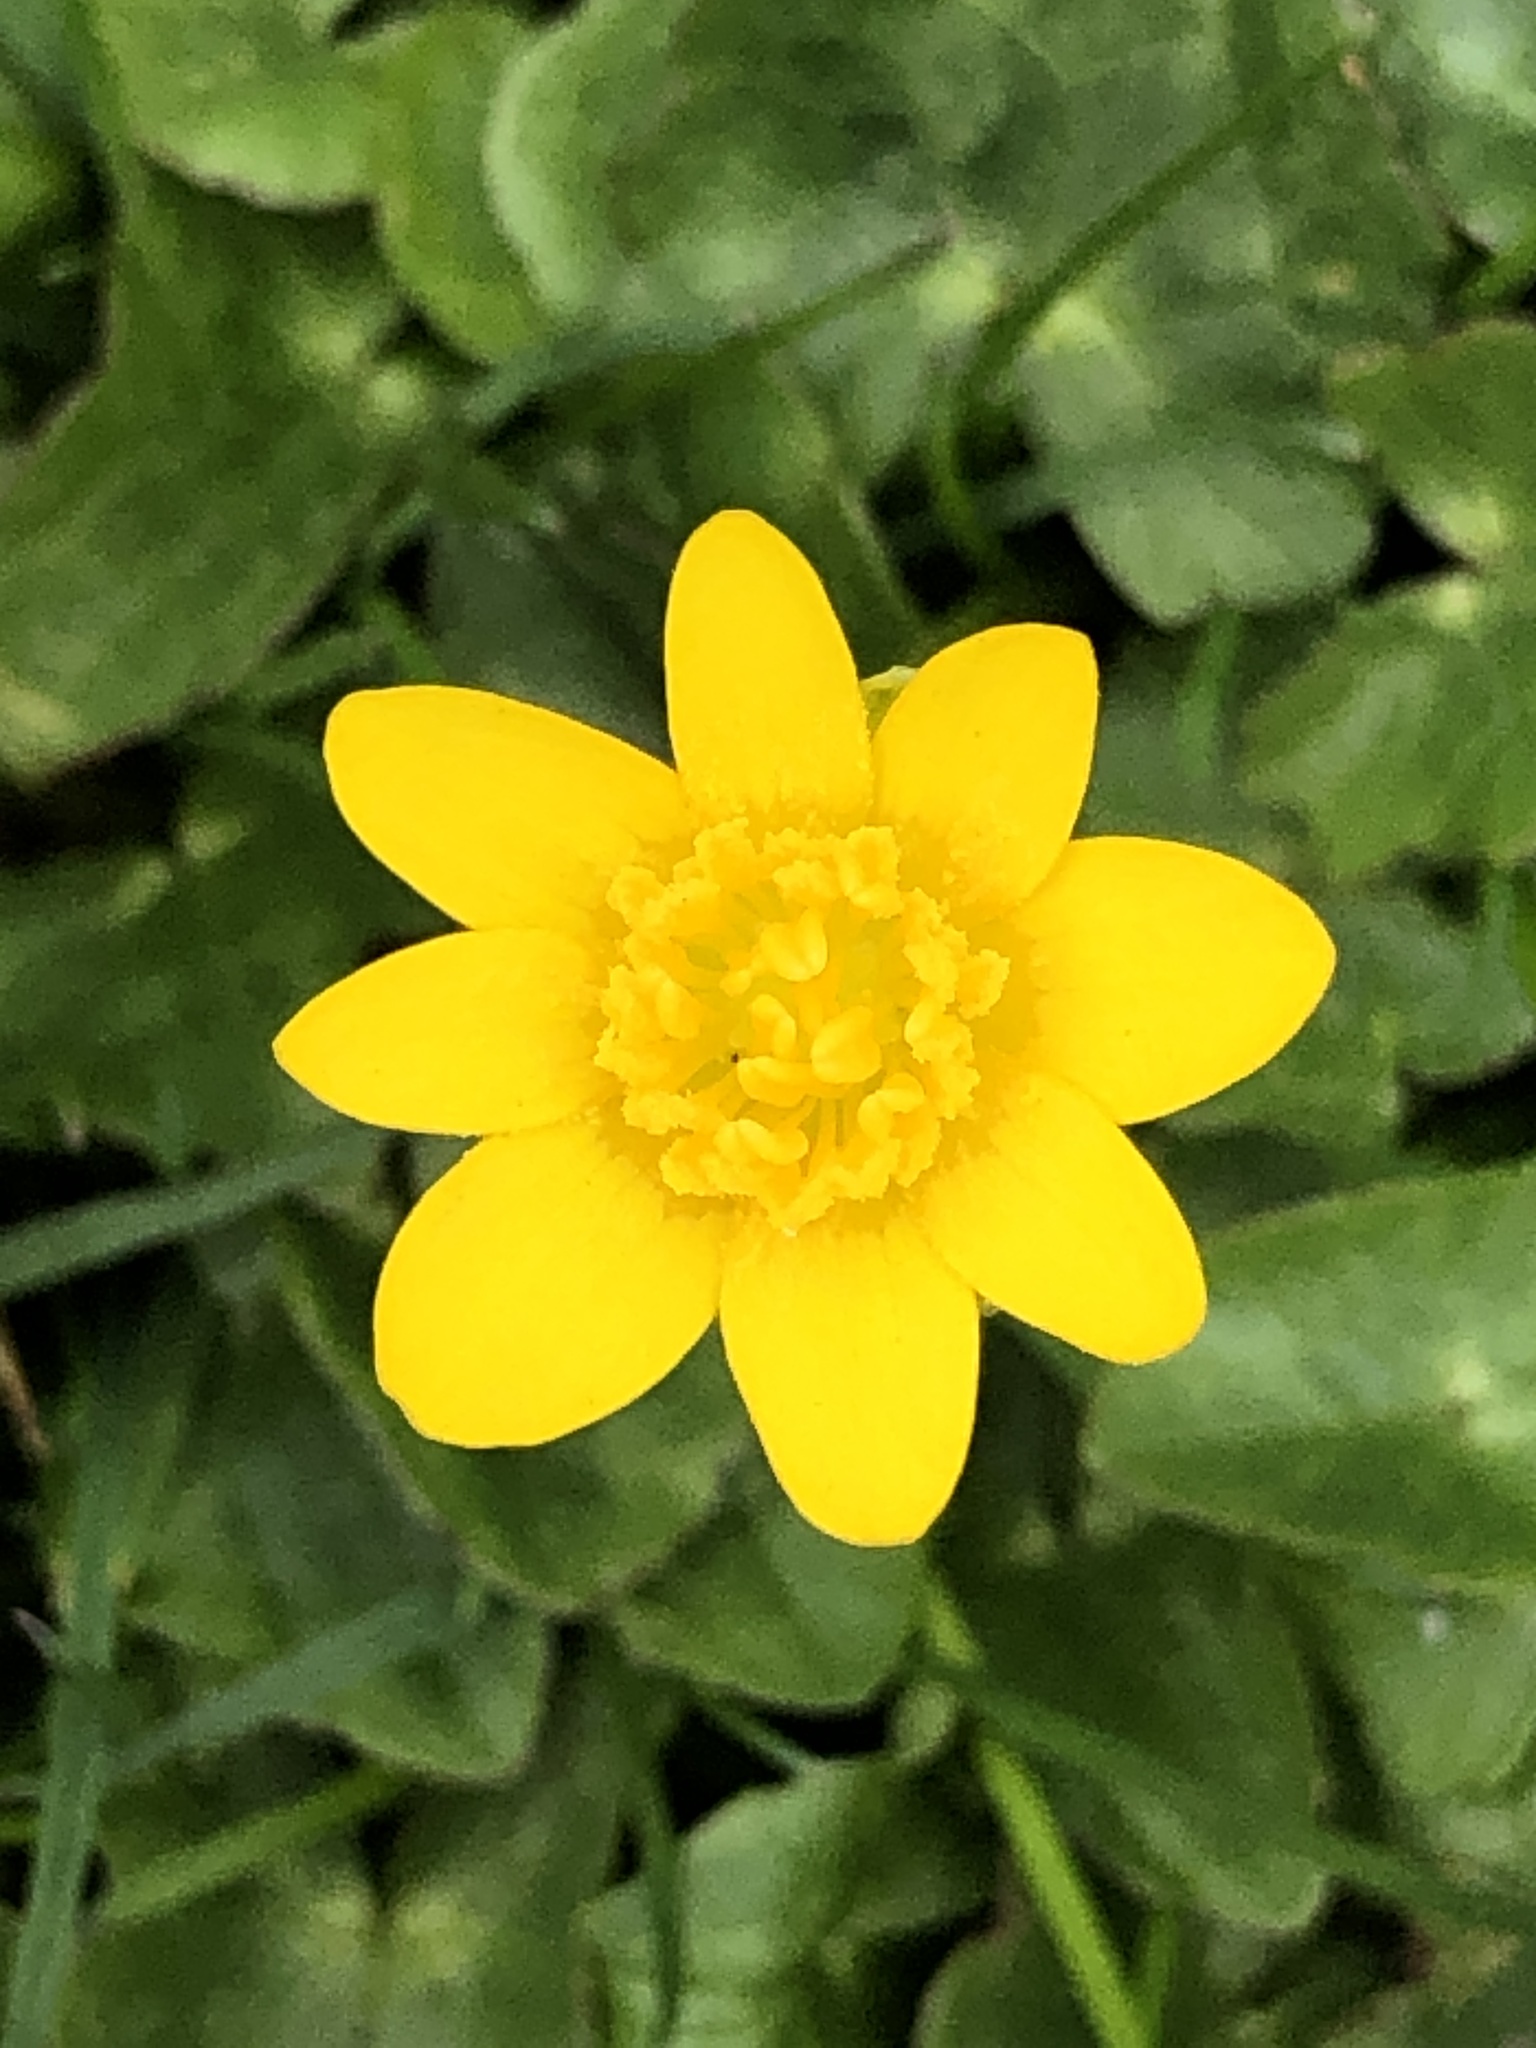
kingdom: Plantae
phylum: Tracheophyta
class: Magnoliopsida
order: Ranunculales
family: Ranunculaceae
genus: Ficaria
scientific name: Ficaria verna
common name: Lesser celandine
